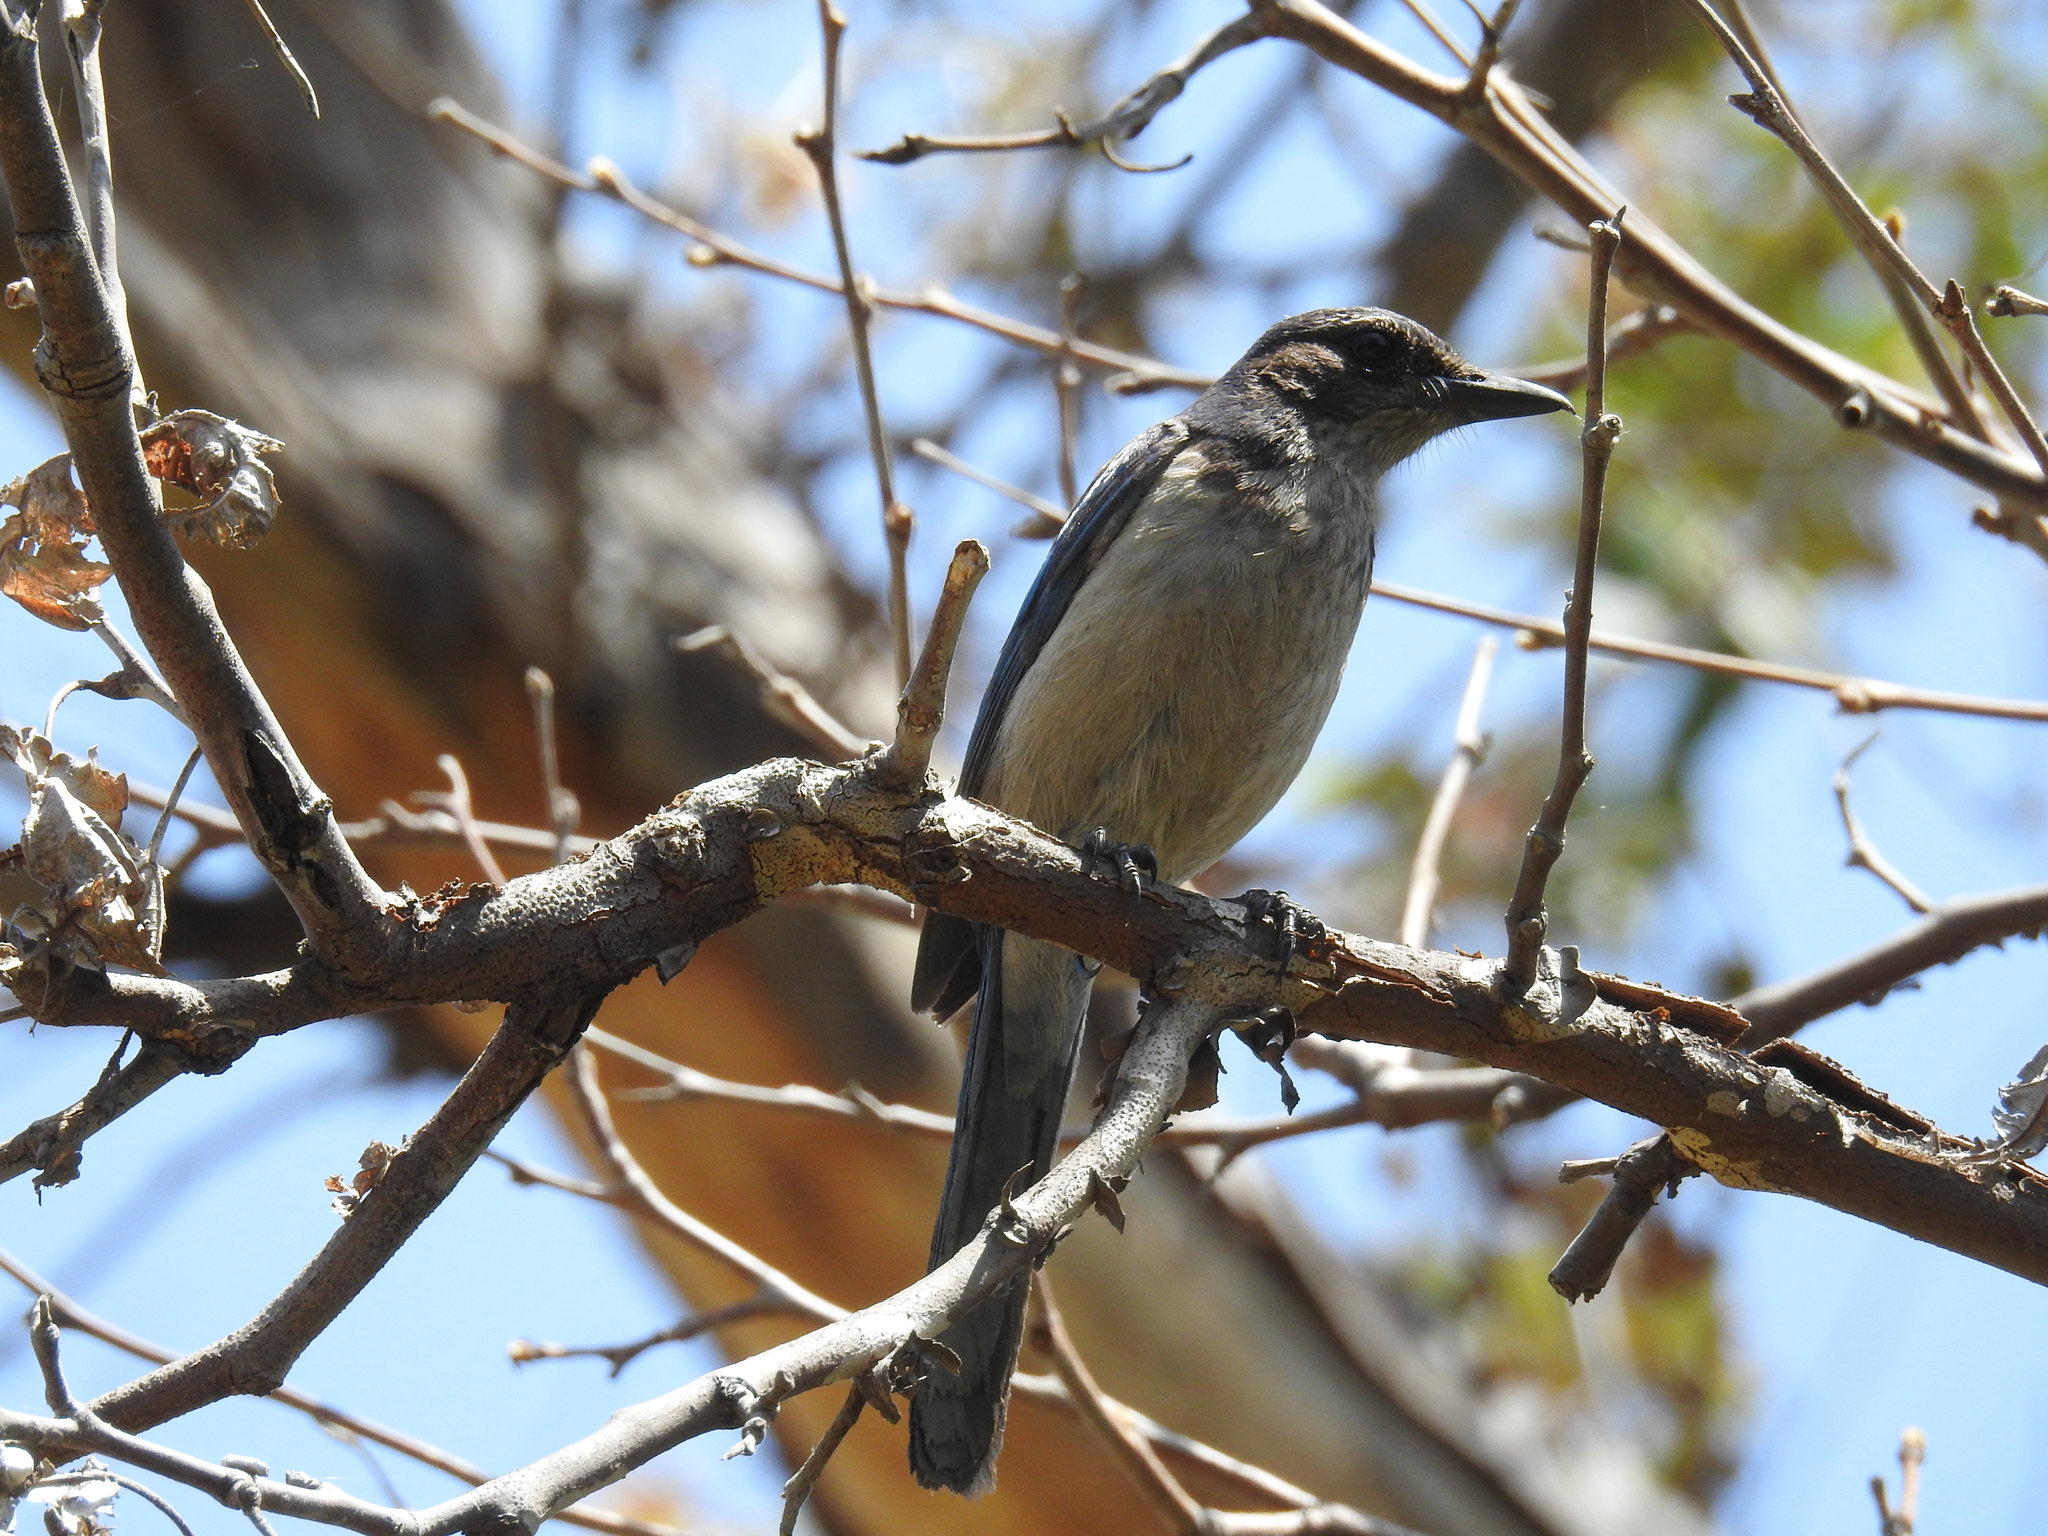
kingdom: Animalia
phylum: Chordata
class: Aves
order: Passeriformes
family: Corvidae
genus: Aphelocoma
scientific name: Aphelocoma californica
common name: California scrub-jay
